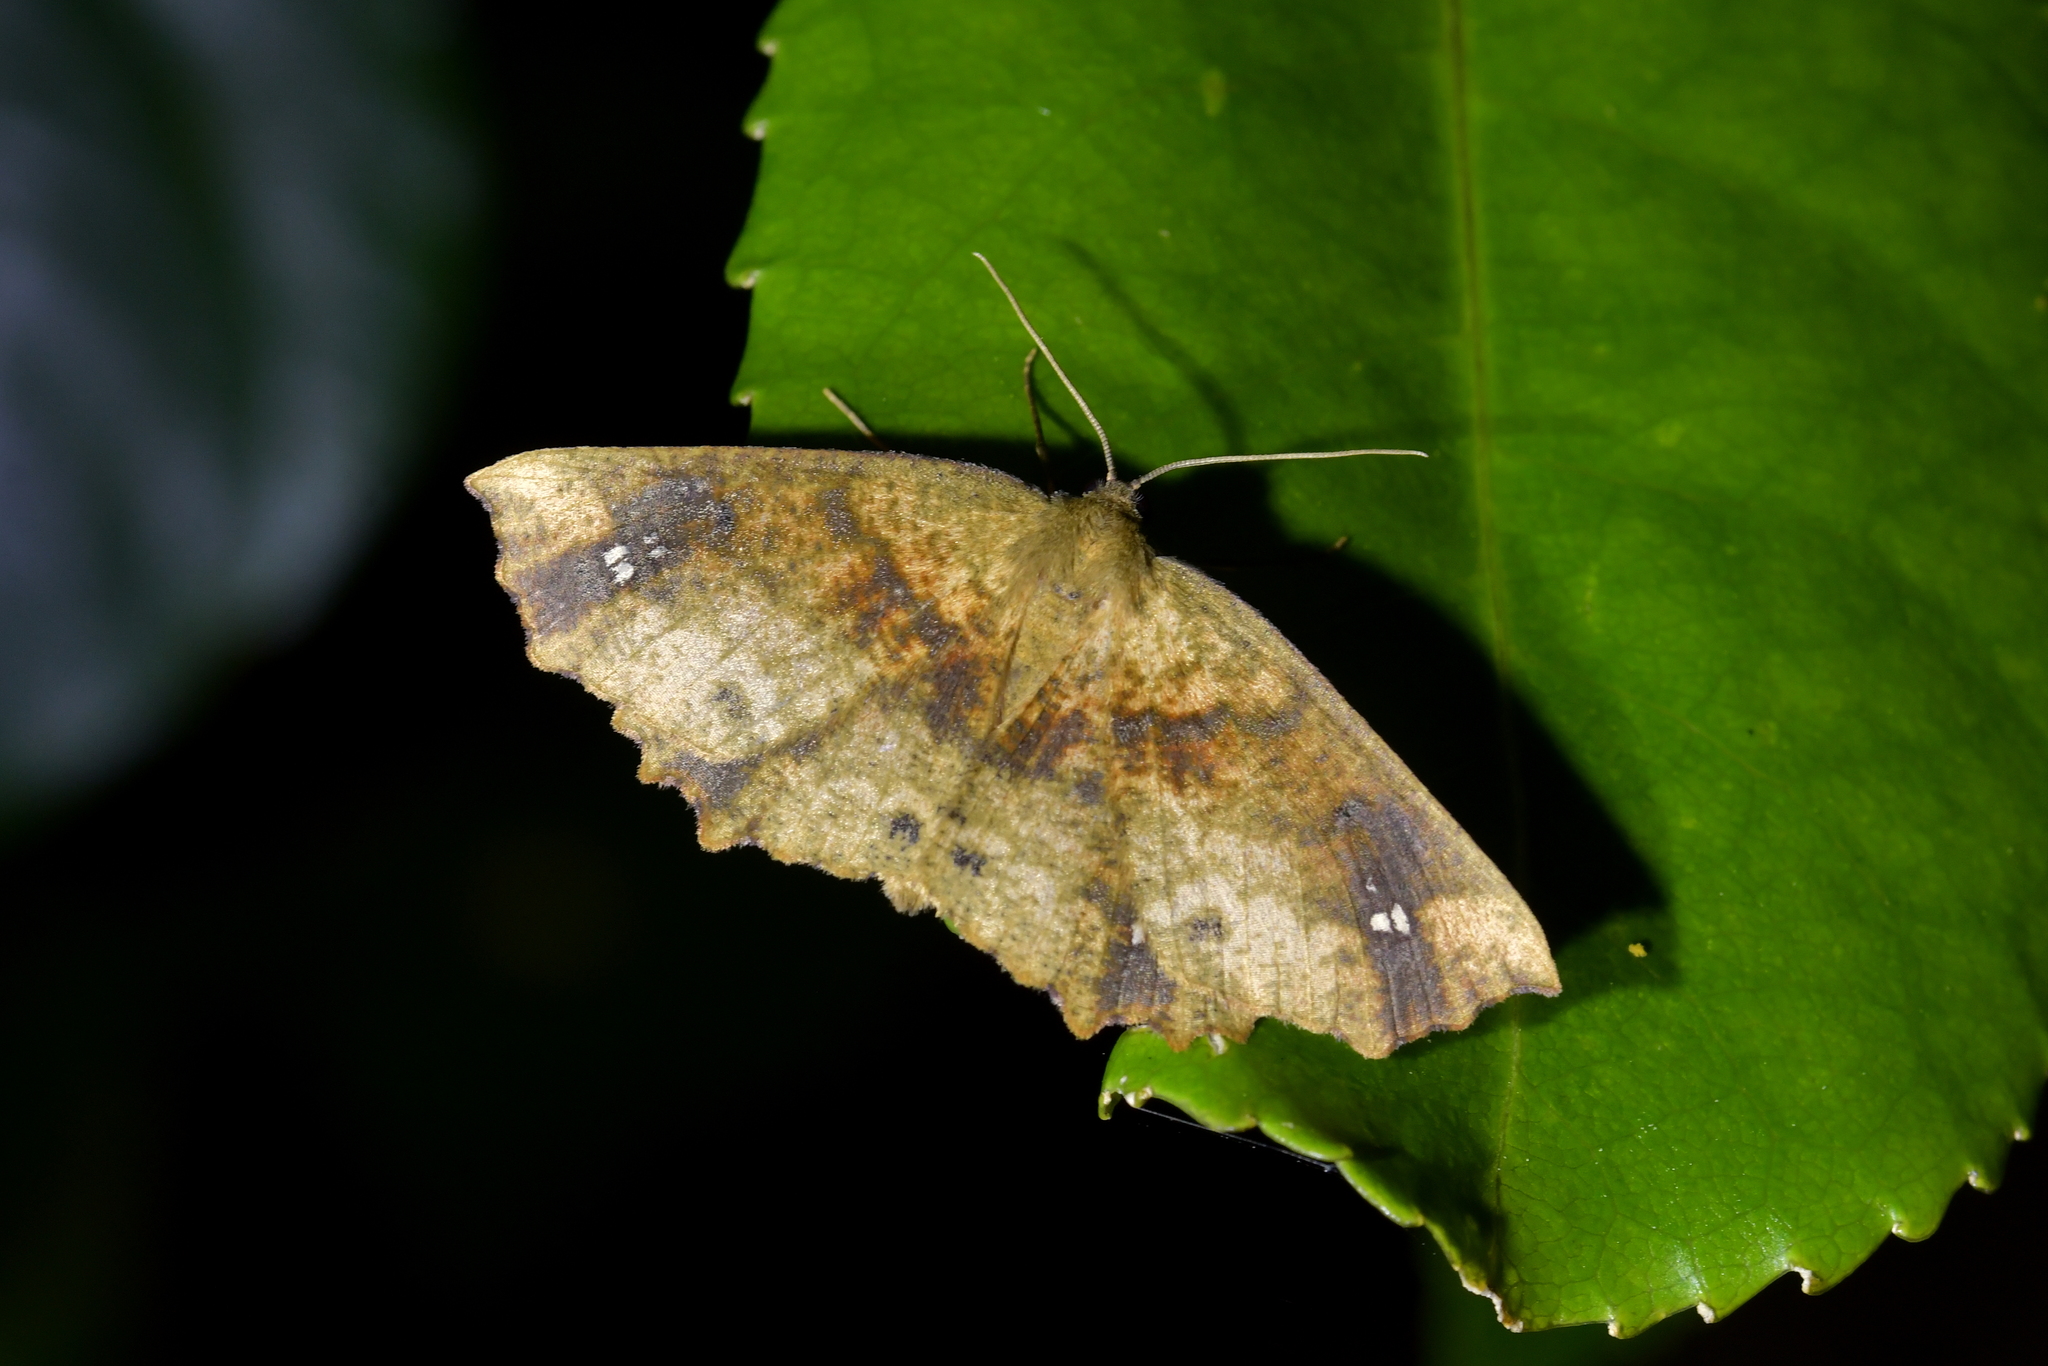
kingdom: Animalia
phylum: Arthropoda
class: Insecta
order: Lepidoptera
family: Geometridae
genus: Xyridacma
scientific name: Xyridacma ustaria
